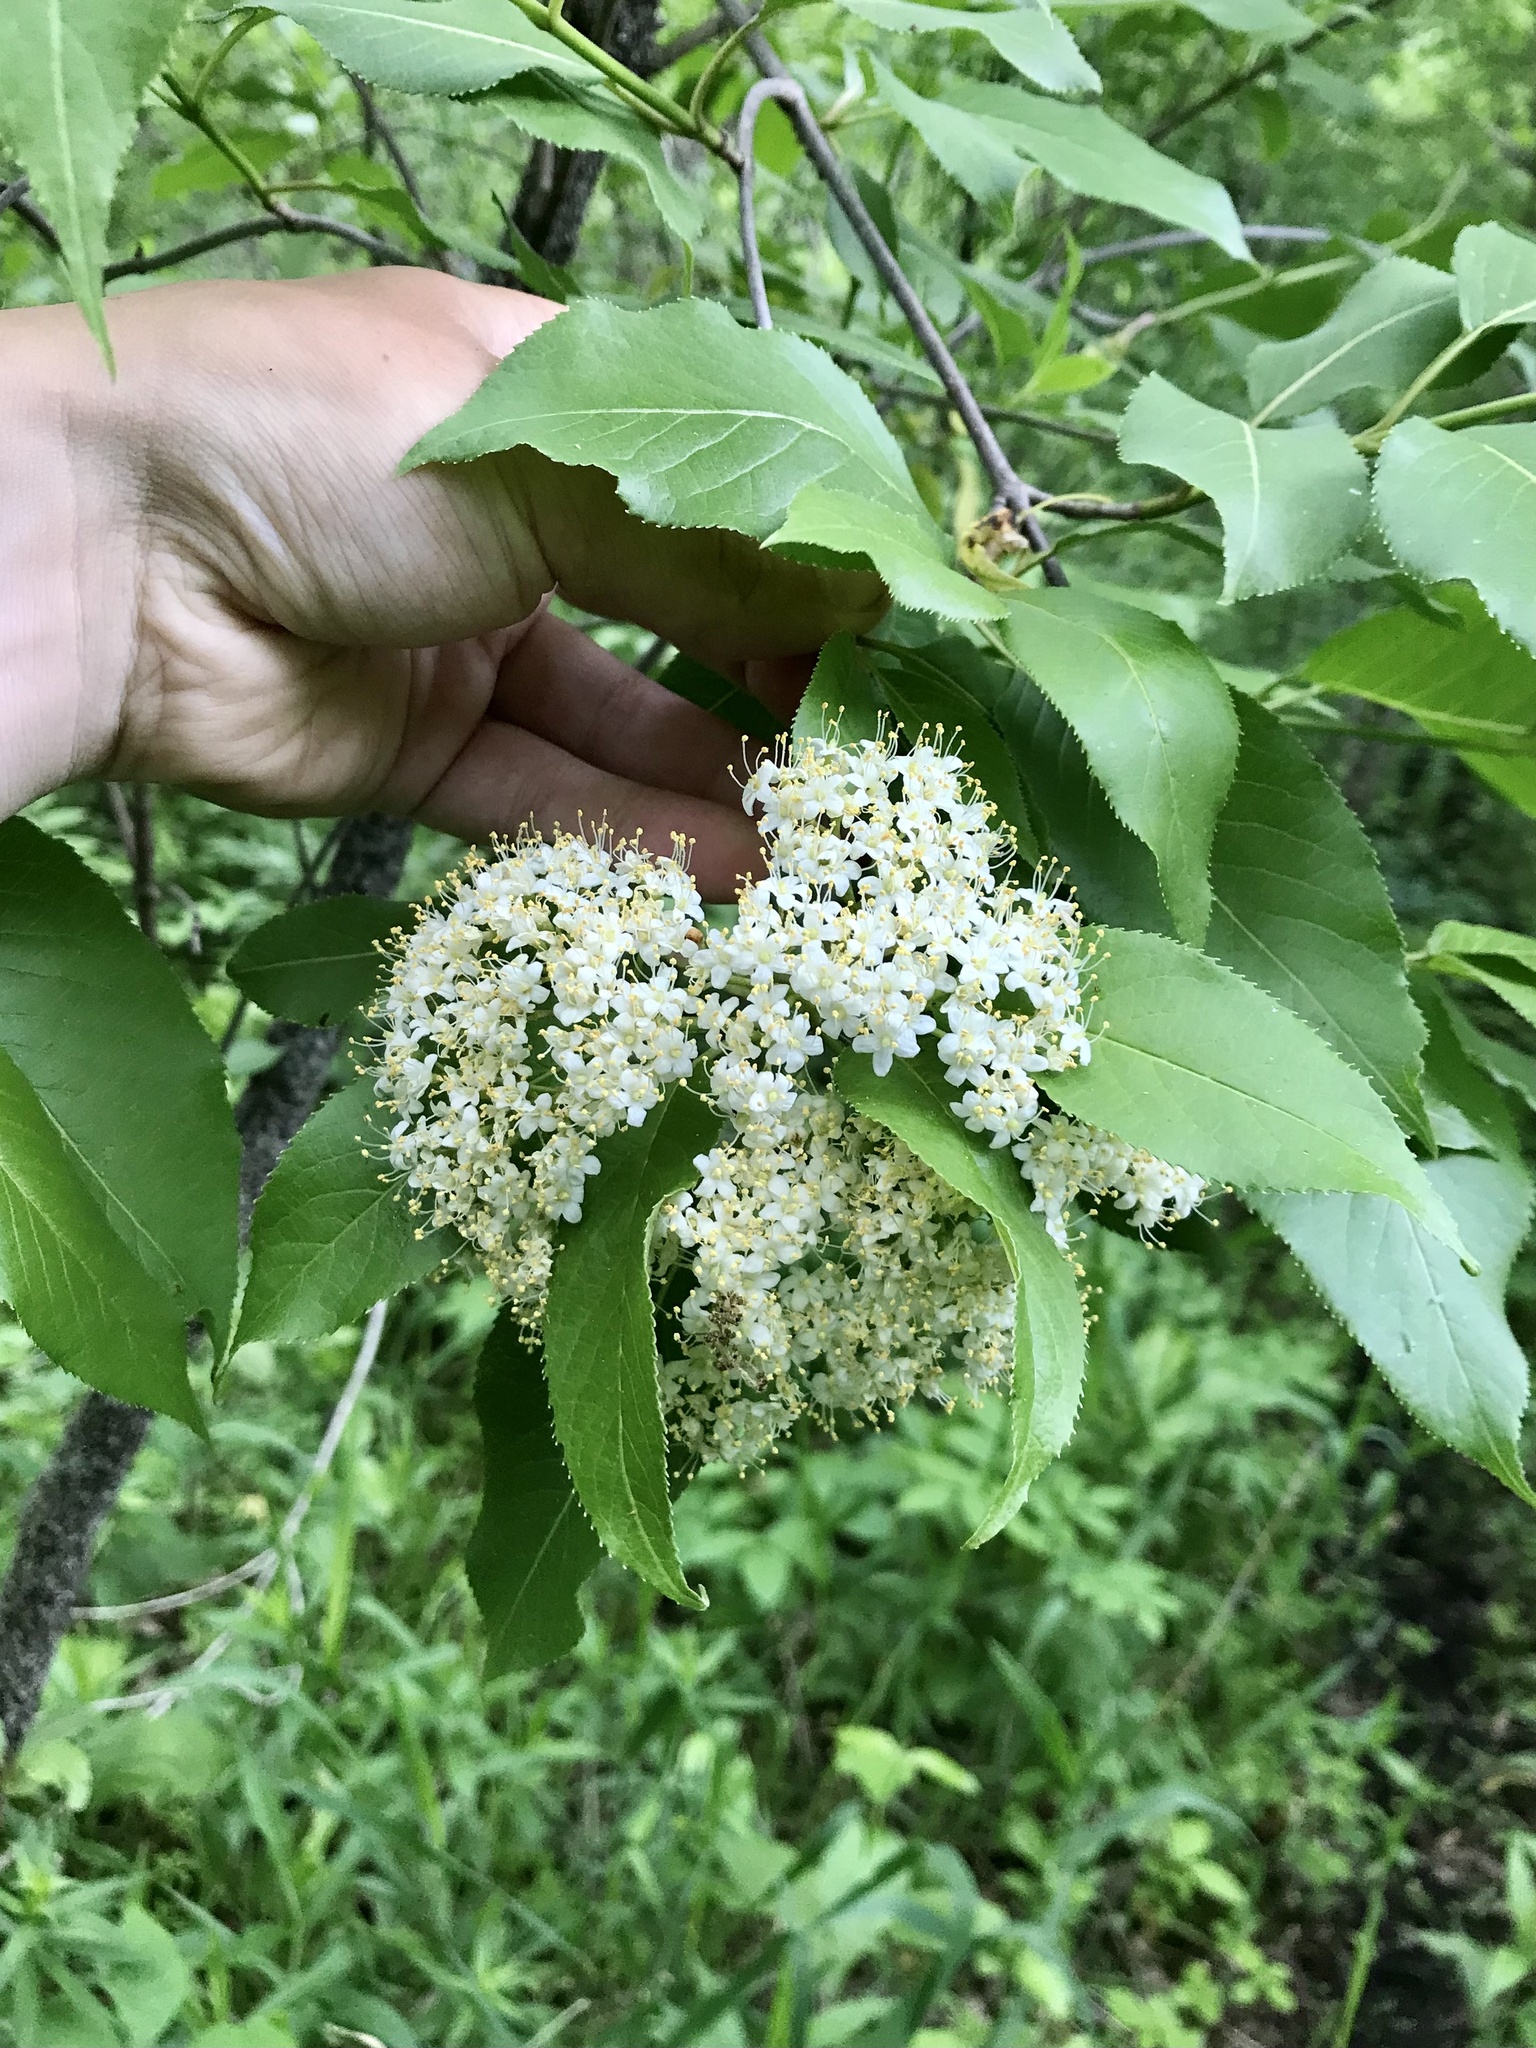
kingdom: Plantae
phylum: Tracheophyta
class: Magnoliopsida
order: Dipsacales
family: Viburnaceae
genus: Viburnum
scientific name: Viburnum lentago
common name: Black haw
